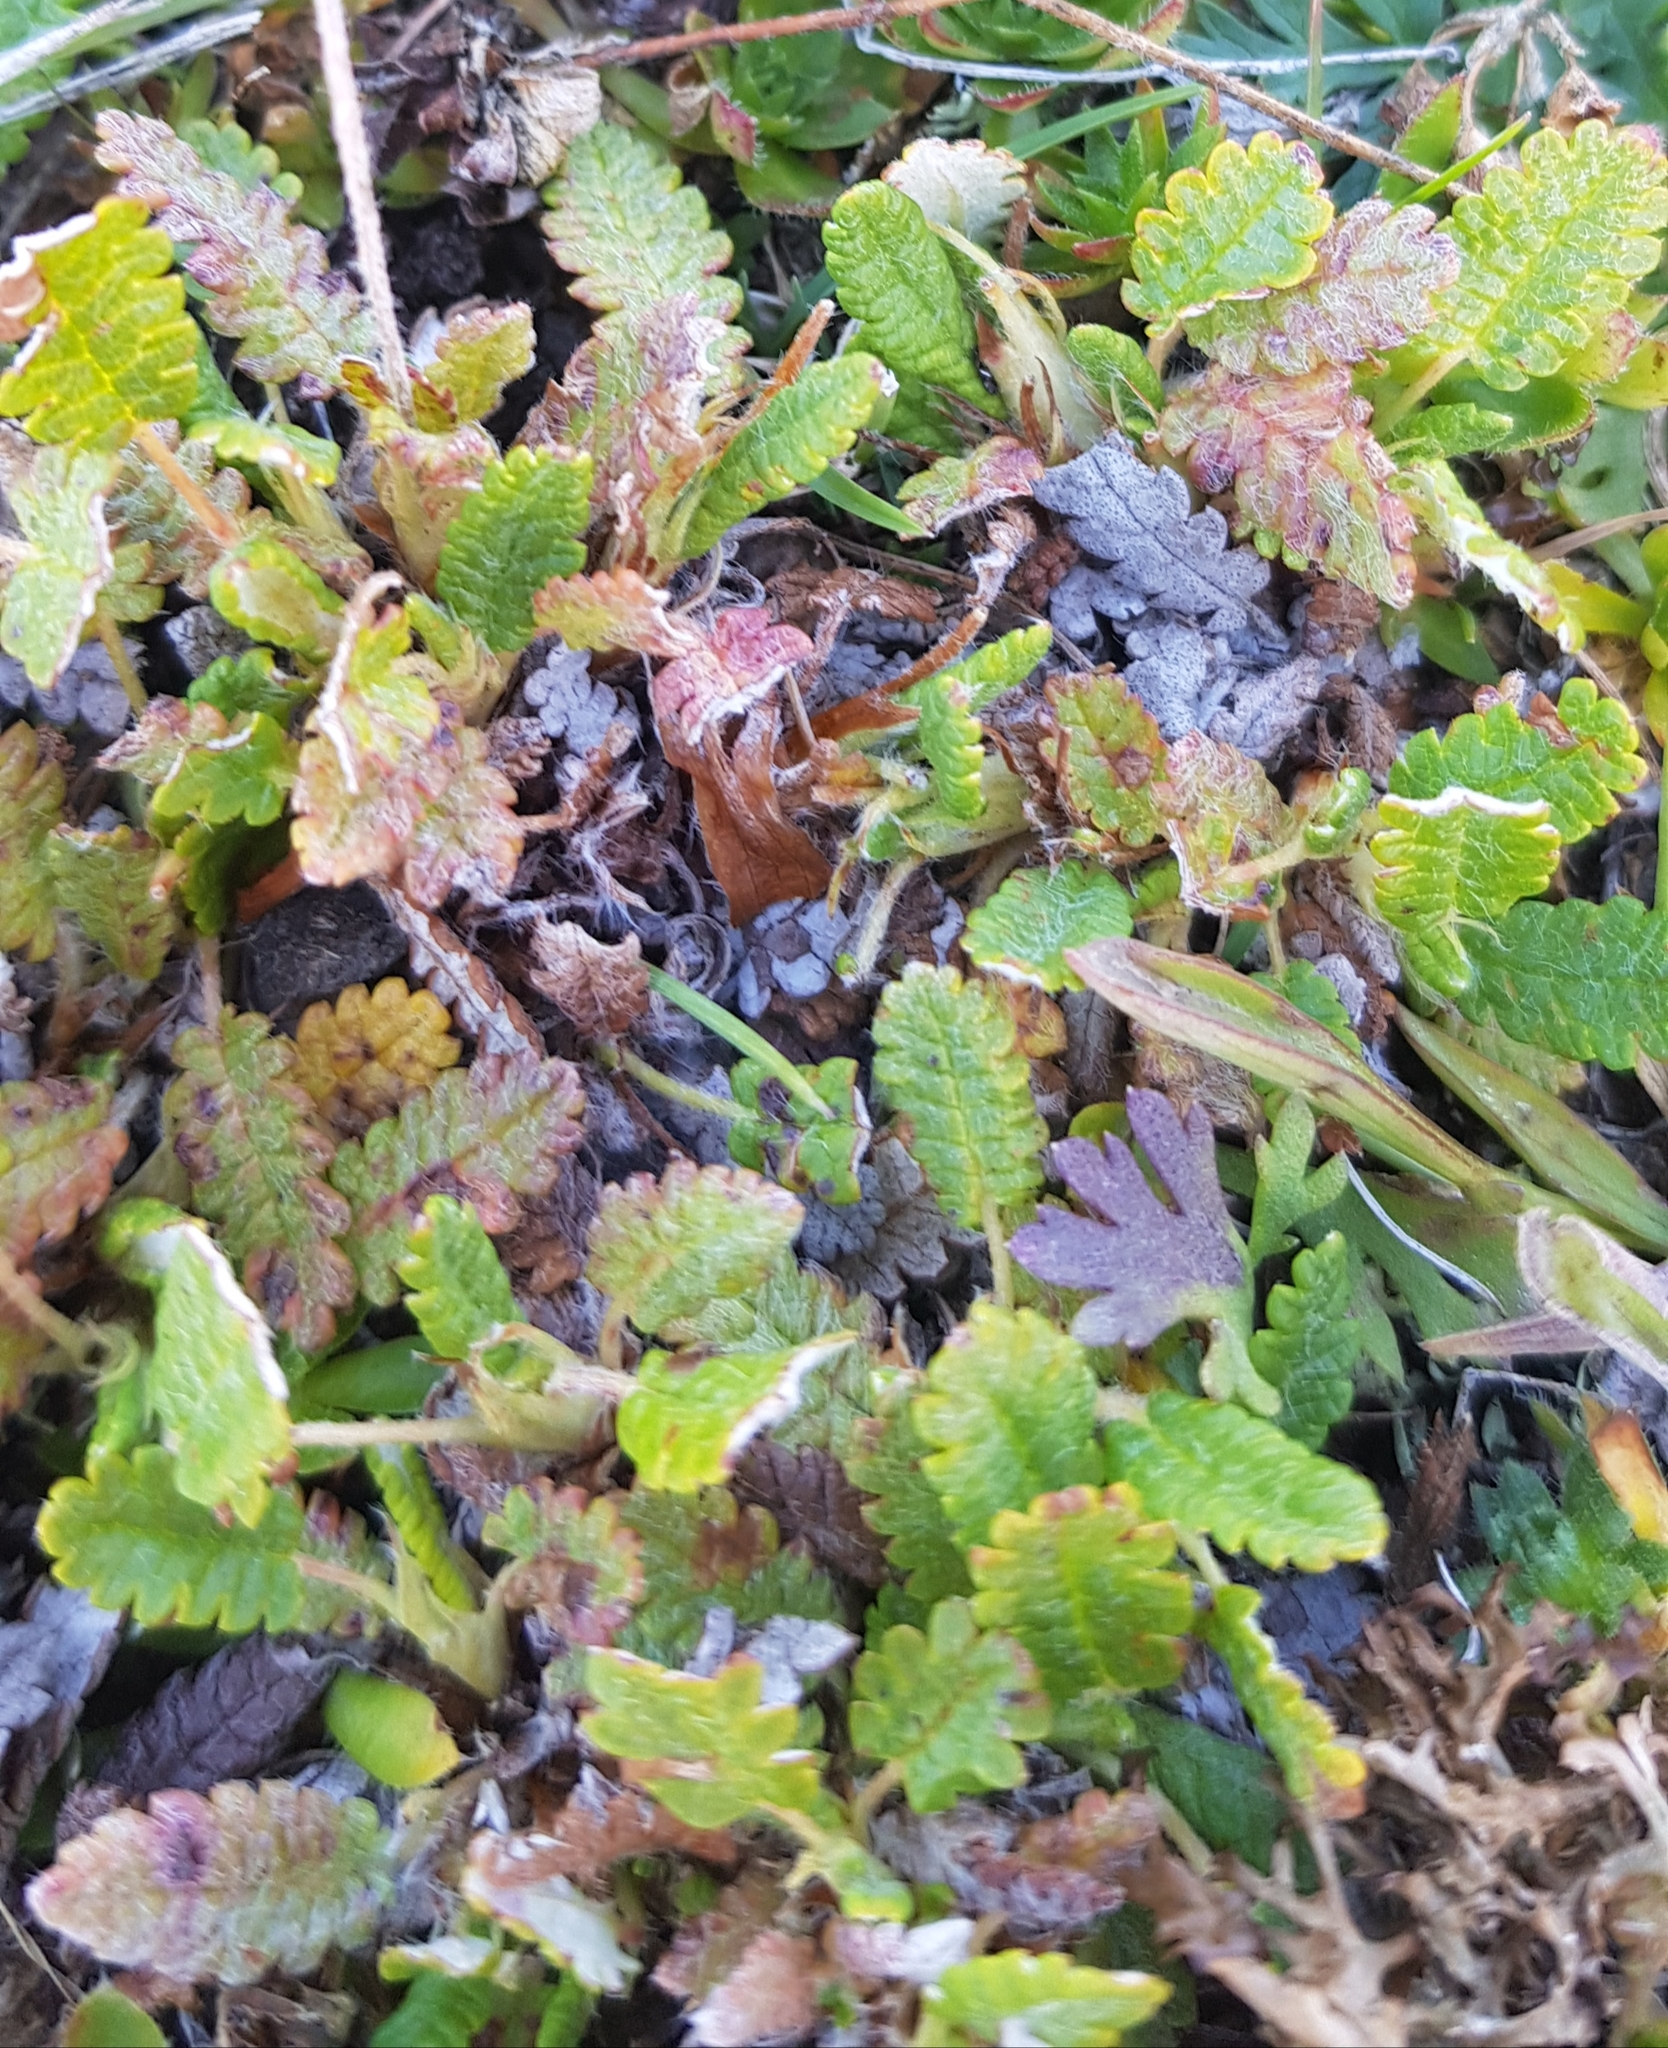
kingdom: Plantae
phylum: Tracheophyta
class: Magnoliopsida
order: Rosales
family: Rosaceae
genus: Dryas
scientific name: Dryas octopetala
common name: Eight-petal mountain-avens
